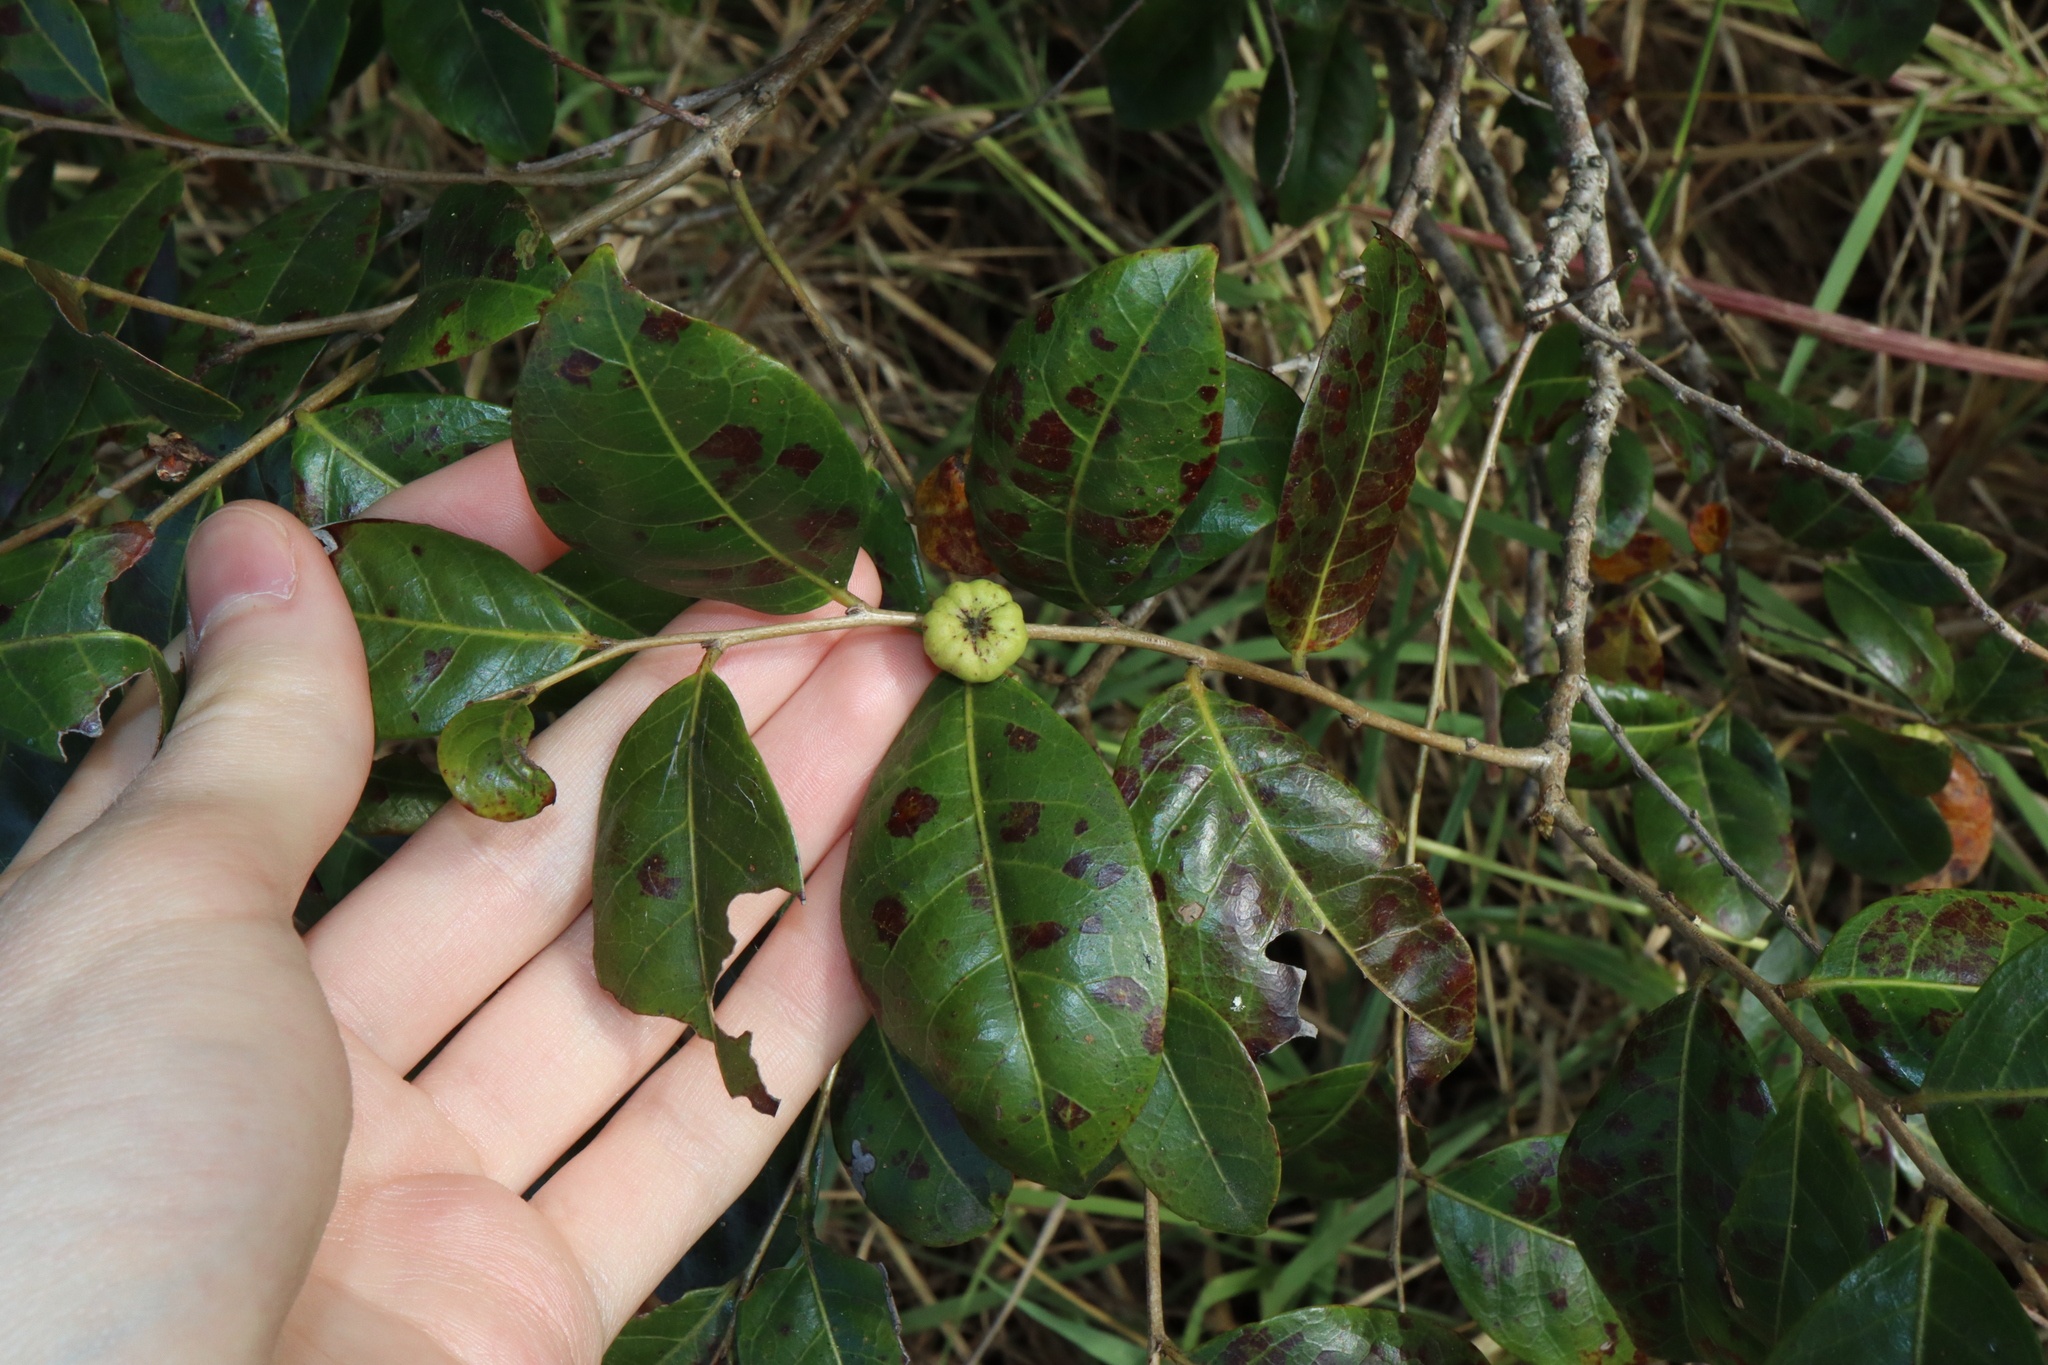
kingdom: Plantae
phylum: Tracheophyta
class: Magnoliopsida
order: Malpighiales
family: Phyllanthaceae
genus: Glochidion
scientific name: Glochidion ferdinandi
